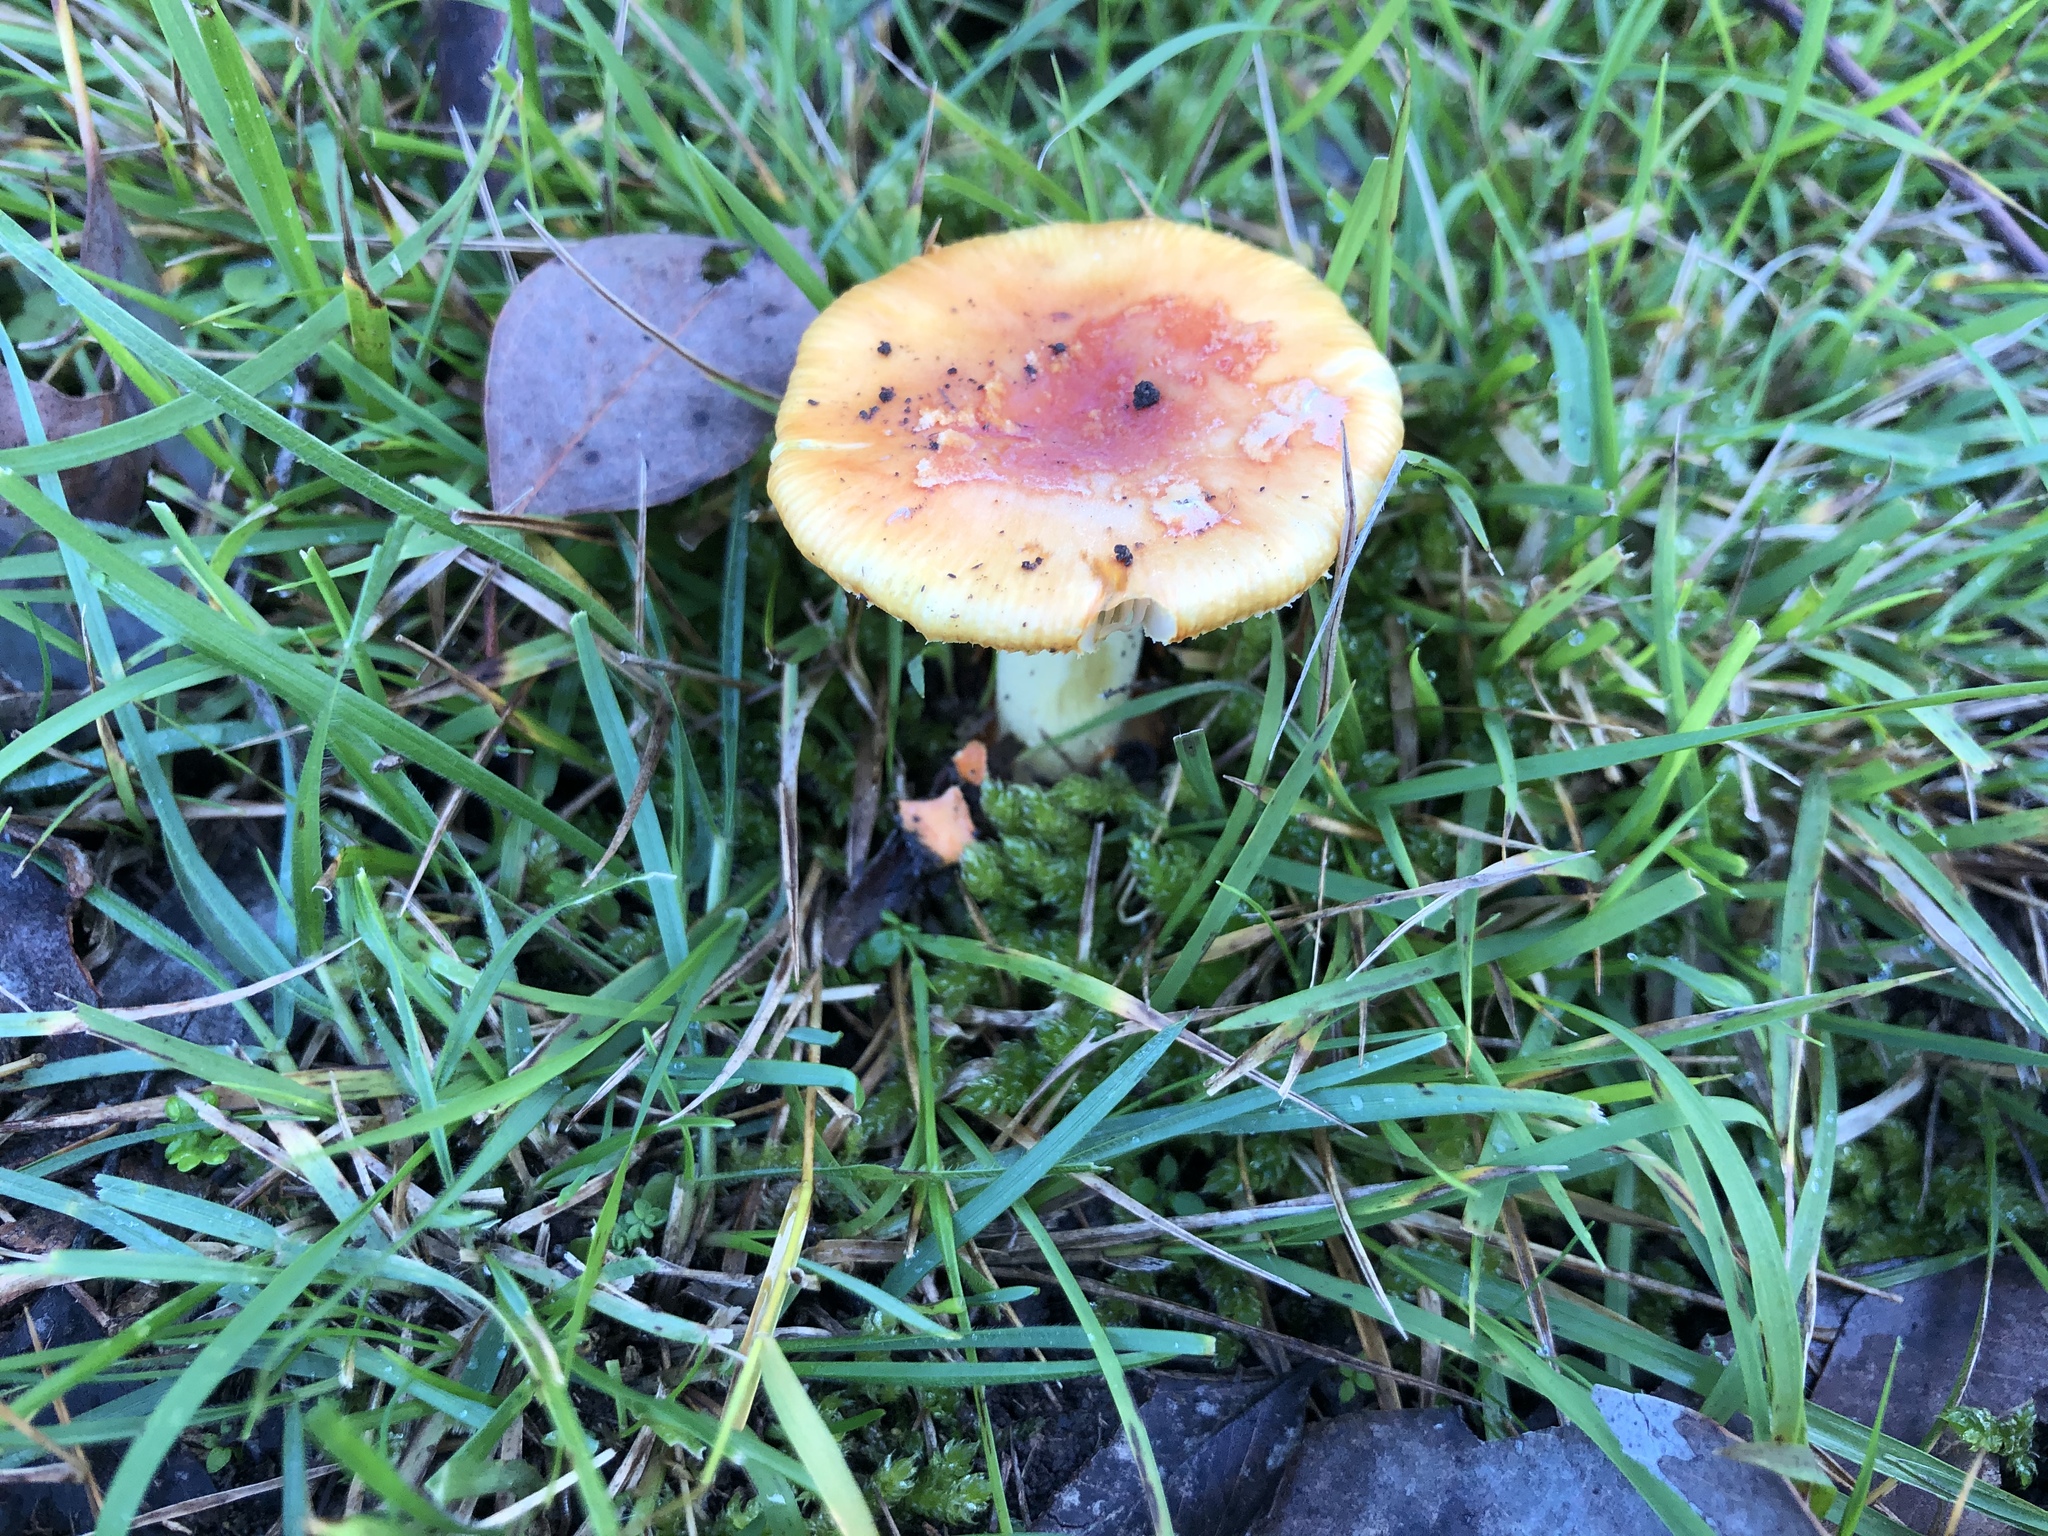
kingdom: Fungi
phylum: Basidiomycota
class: Agaricomycetes
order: Agaricales
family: Amanitaceae
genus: Amanita
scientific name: Amanita xanthocephala
